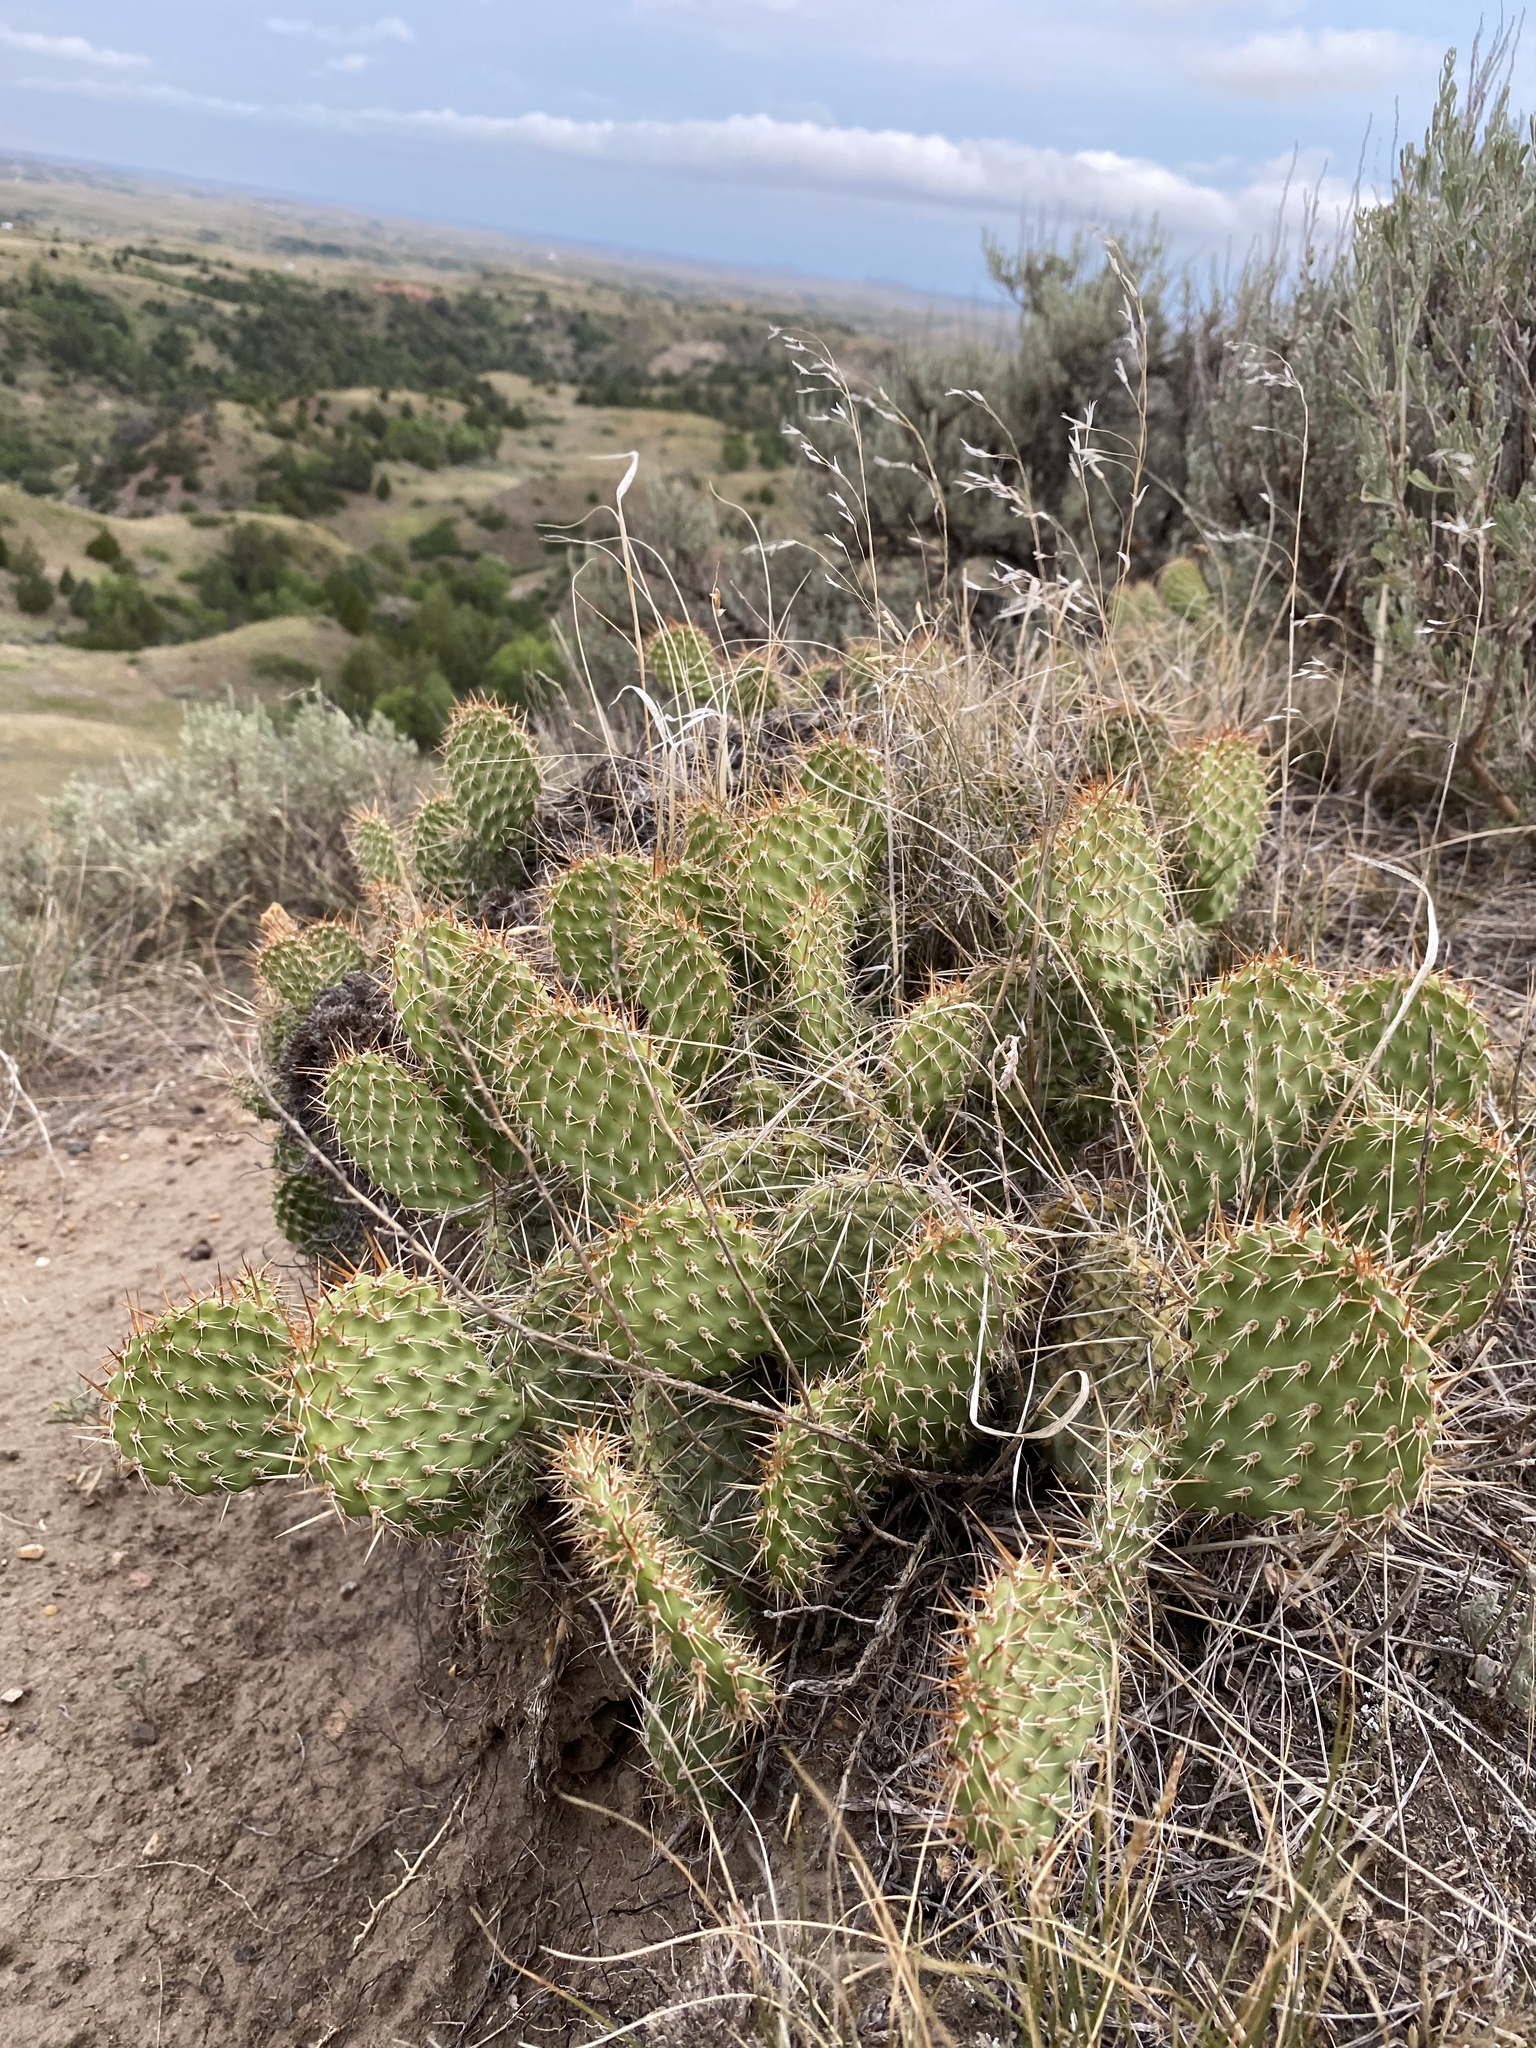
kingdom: Plantae
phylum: Tracheophyta
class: Magnoliopsida
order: Caryophyllales
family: Cactaceae
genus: Opuntia
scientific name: Opuntia polyacantha
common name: Plains prickly-pear
